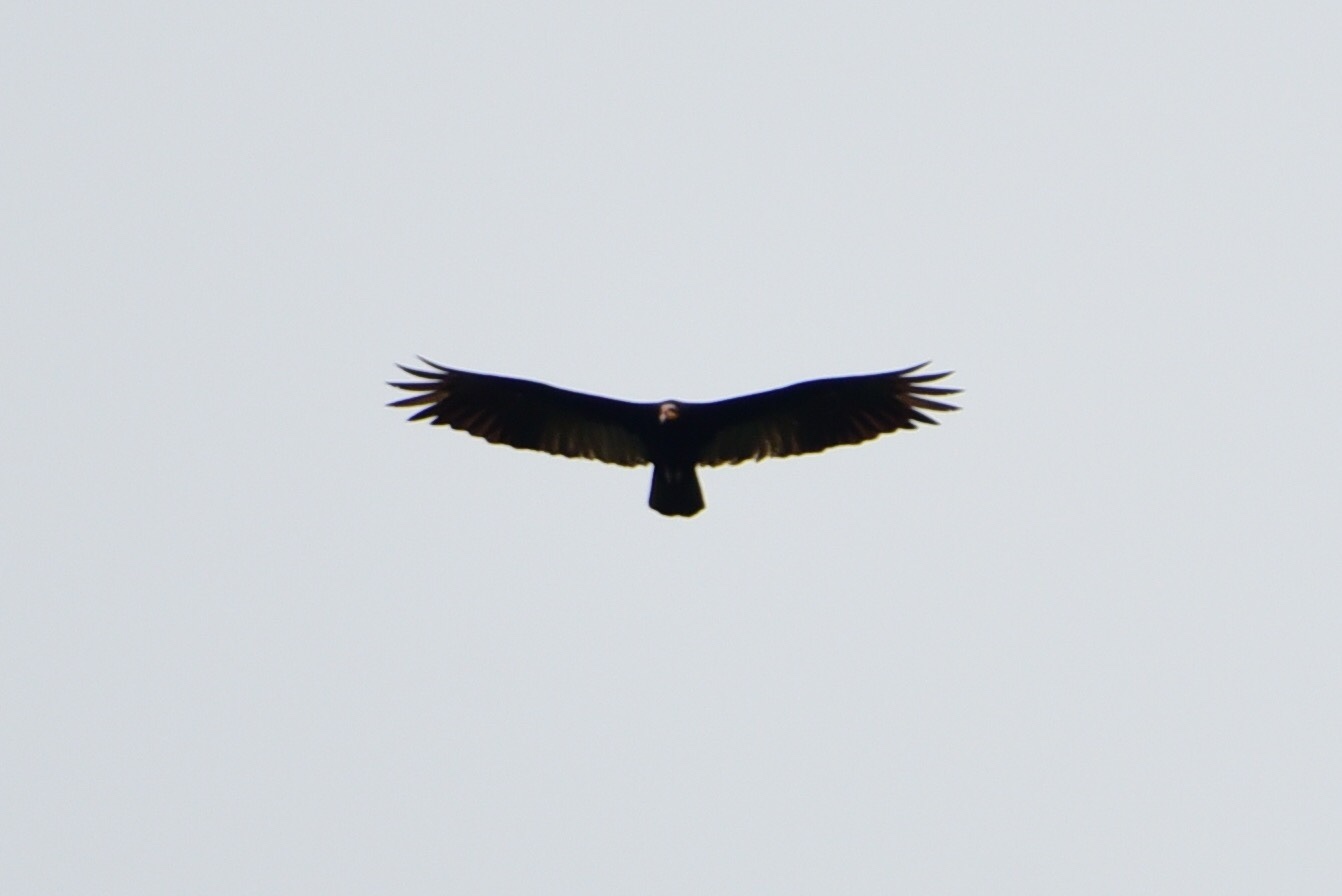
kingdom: Animalia
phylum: Chordata
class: Aves
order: Accipitriformes
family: Cathartidae
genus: Cathartes
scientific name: Cathartes melambrotus
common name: Greater yellow-headed vulture
